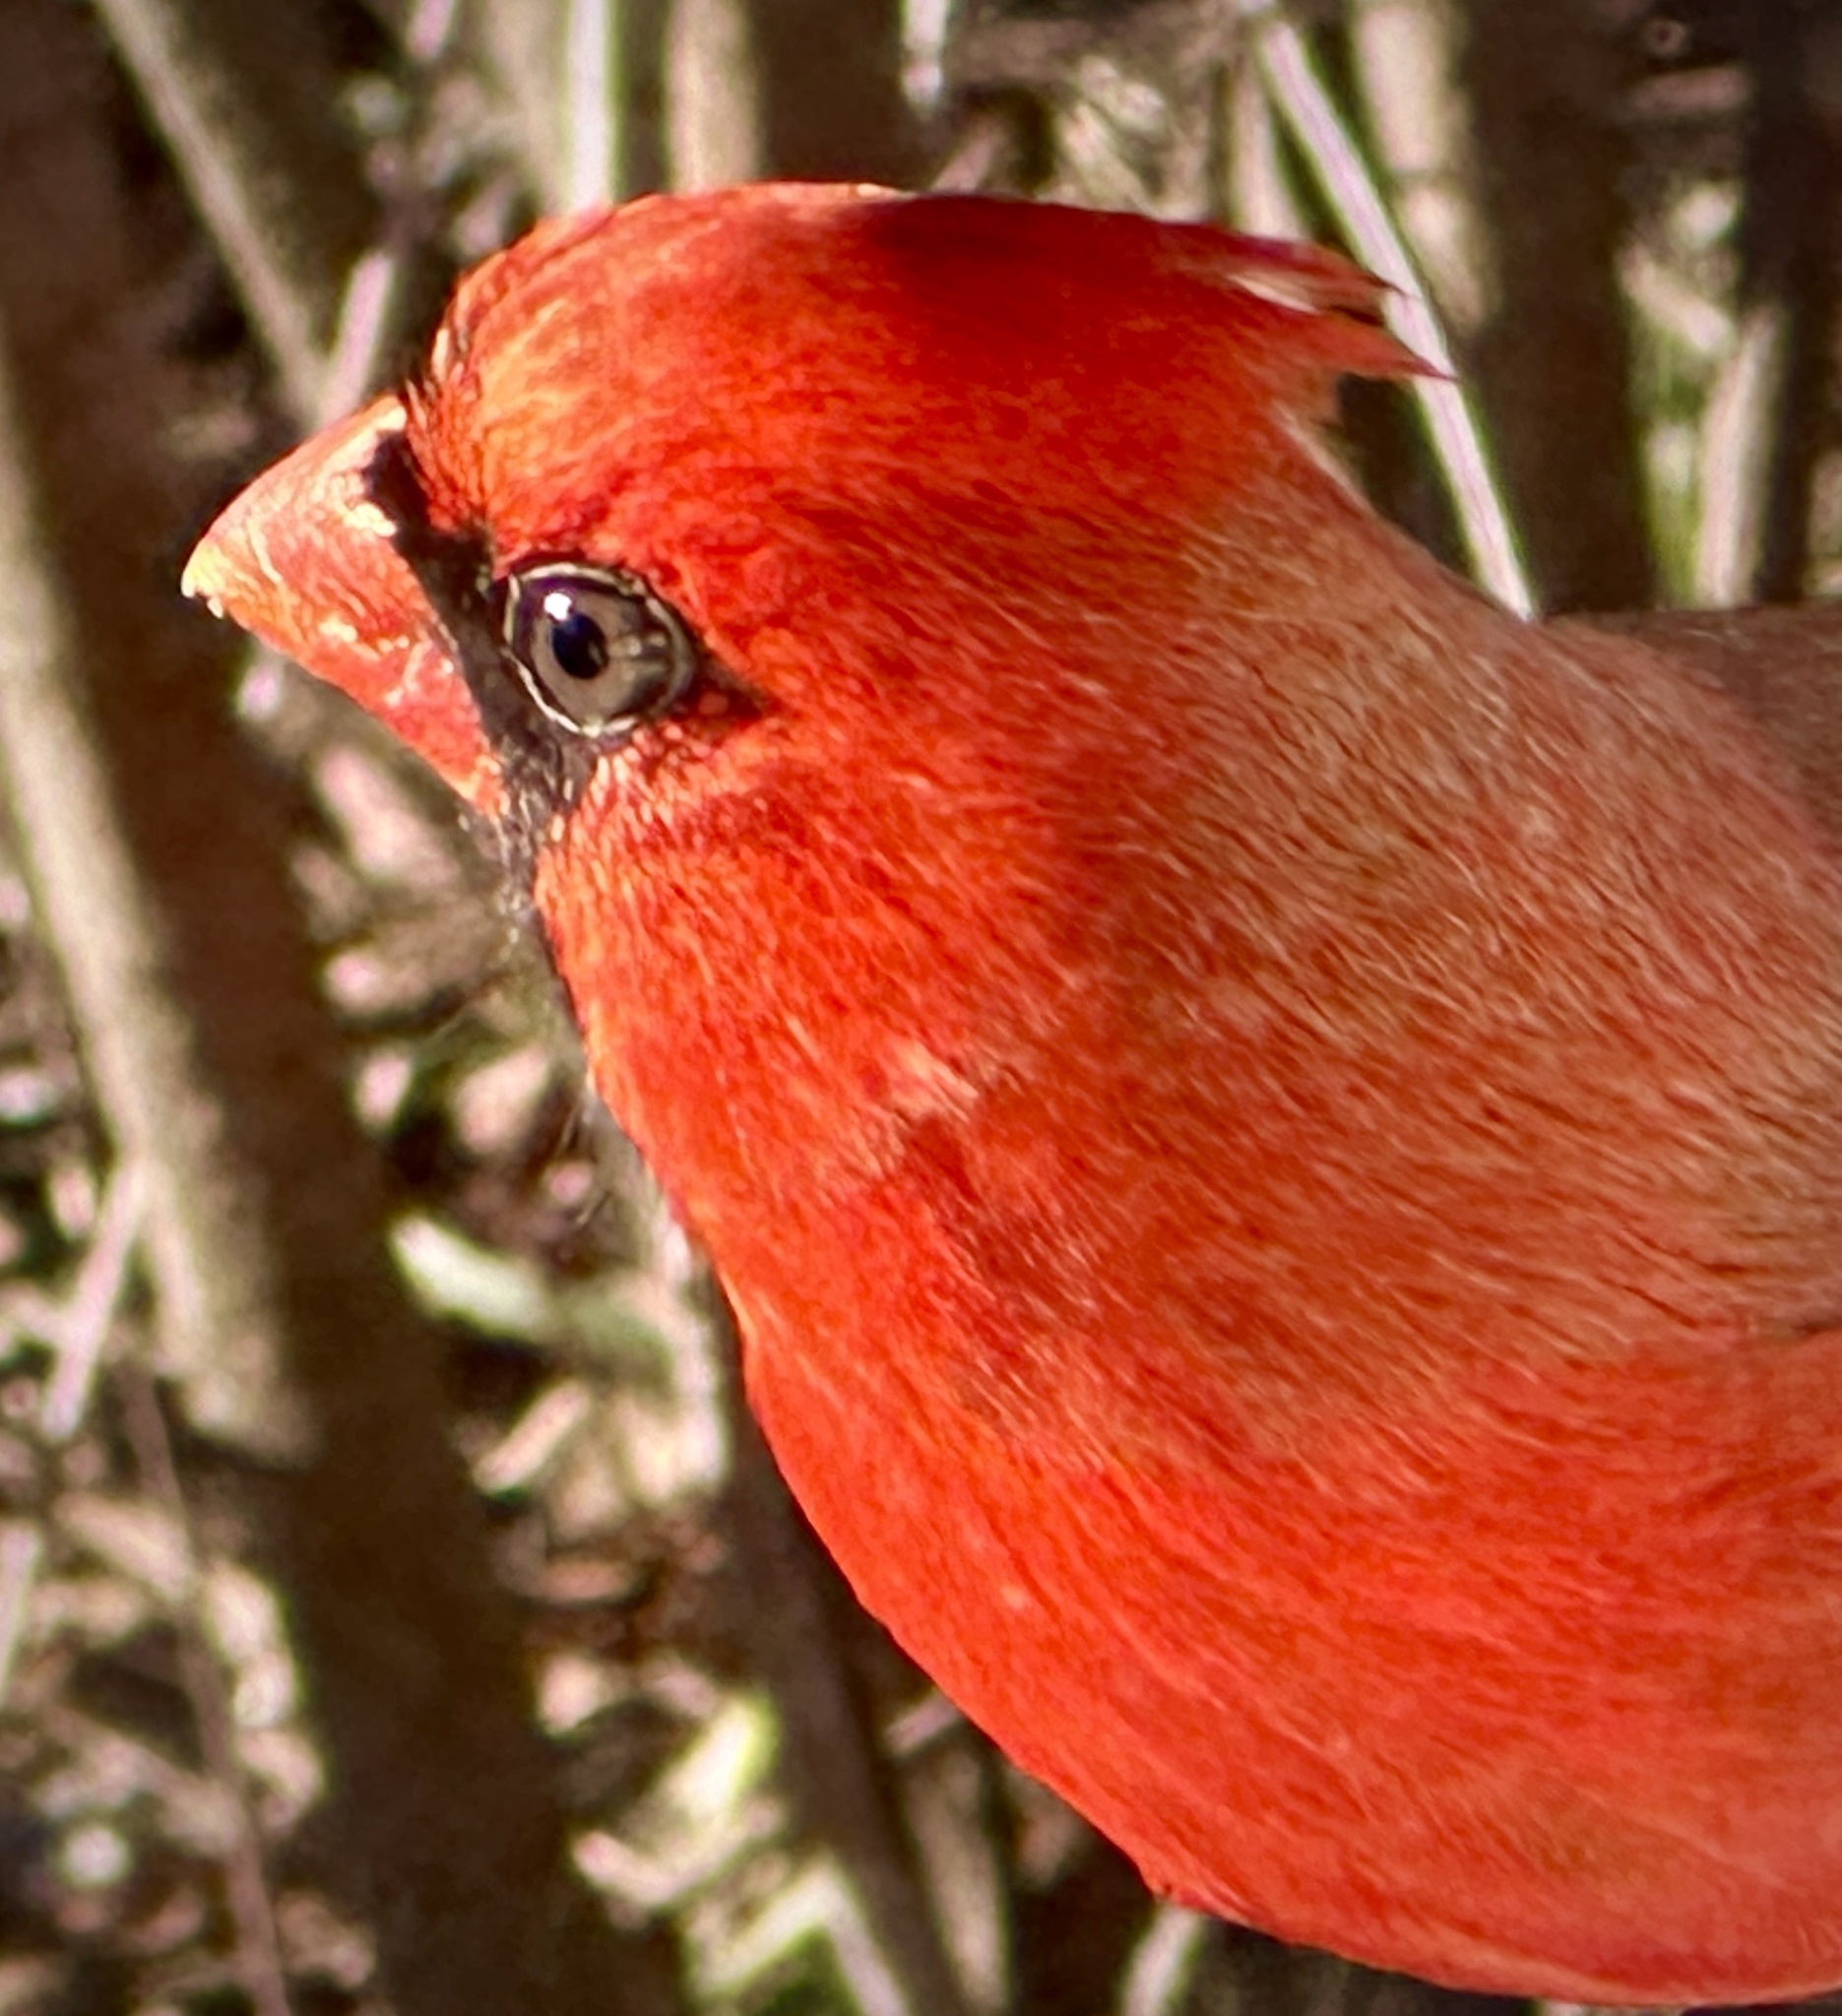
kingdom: Animalia
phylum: Chordata
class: Aves
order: Passeriformes
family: Cardinalidae
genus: Cardinalis
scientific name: Cardinalis cardinalis
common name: Northern cardinal
